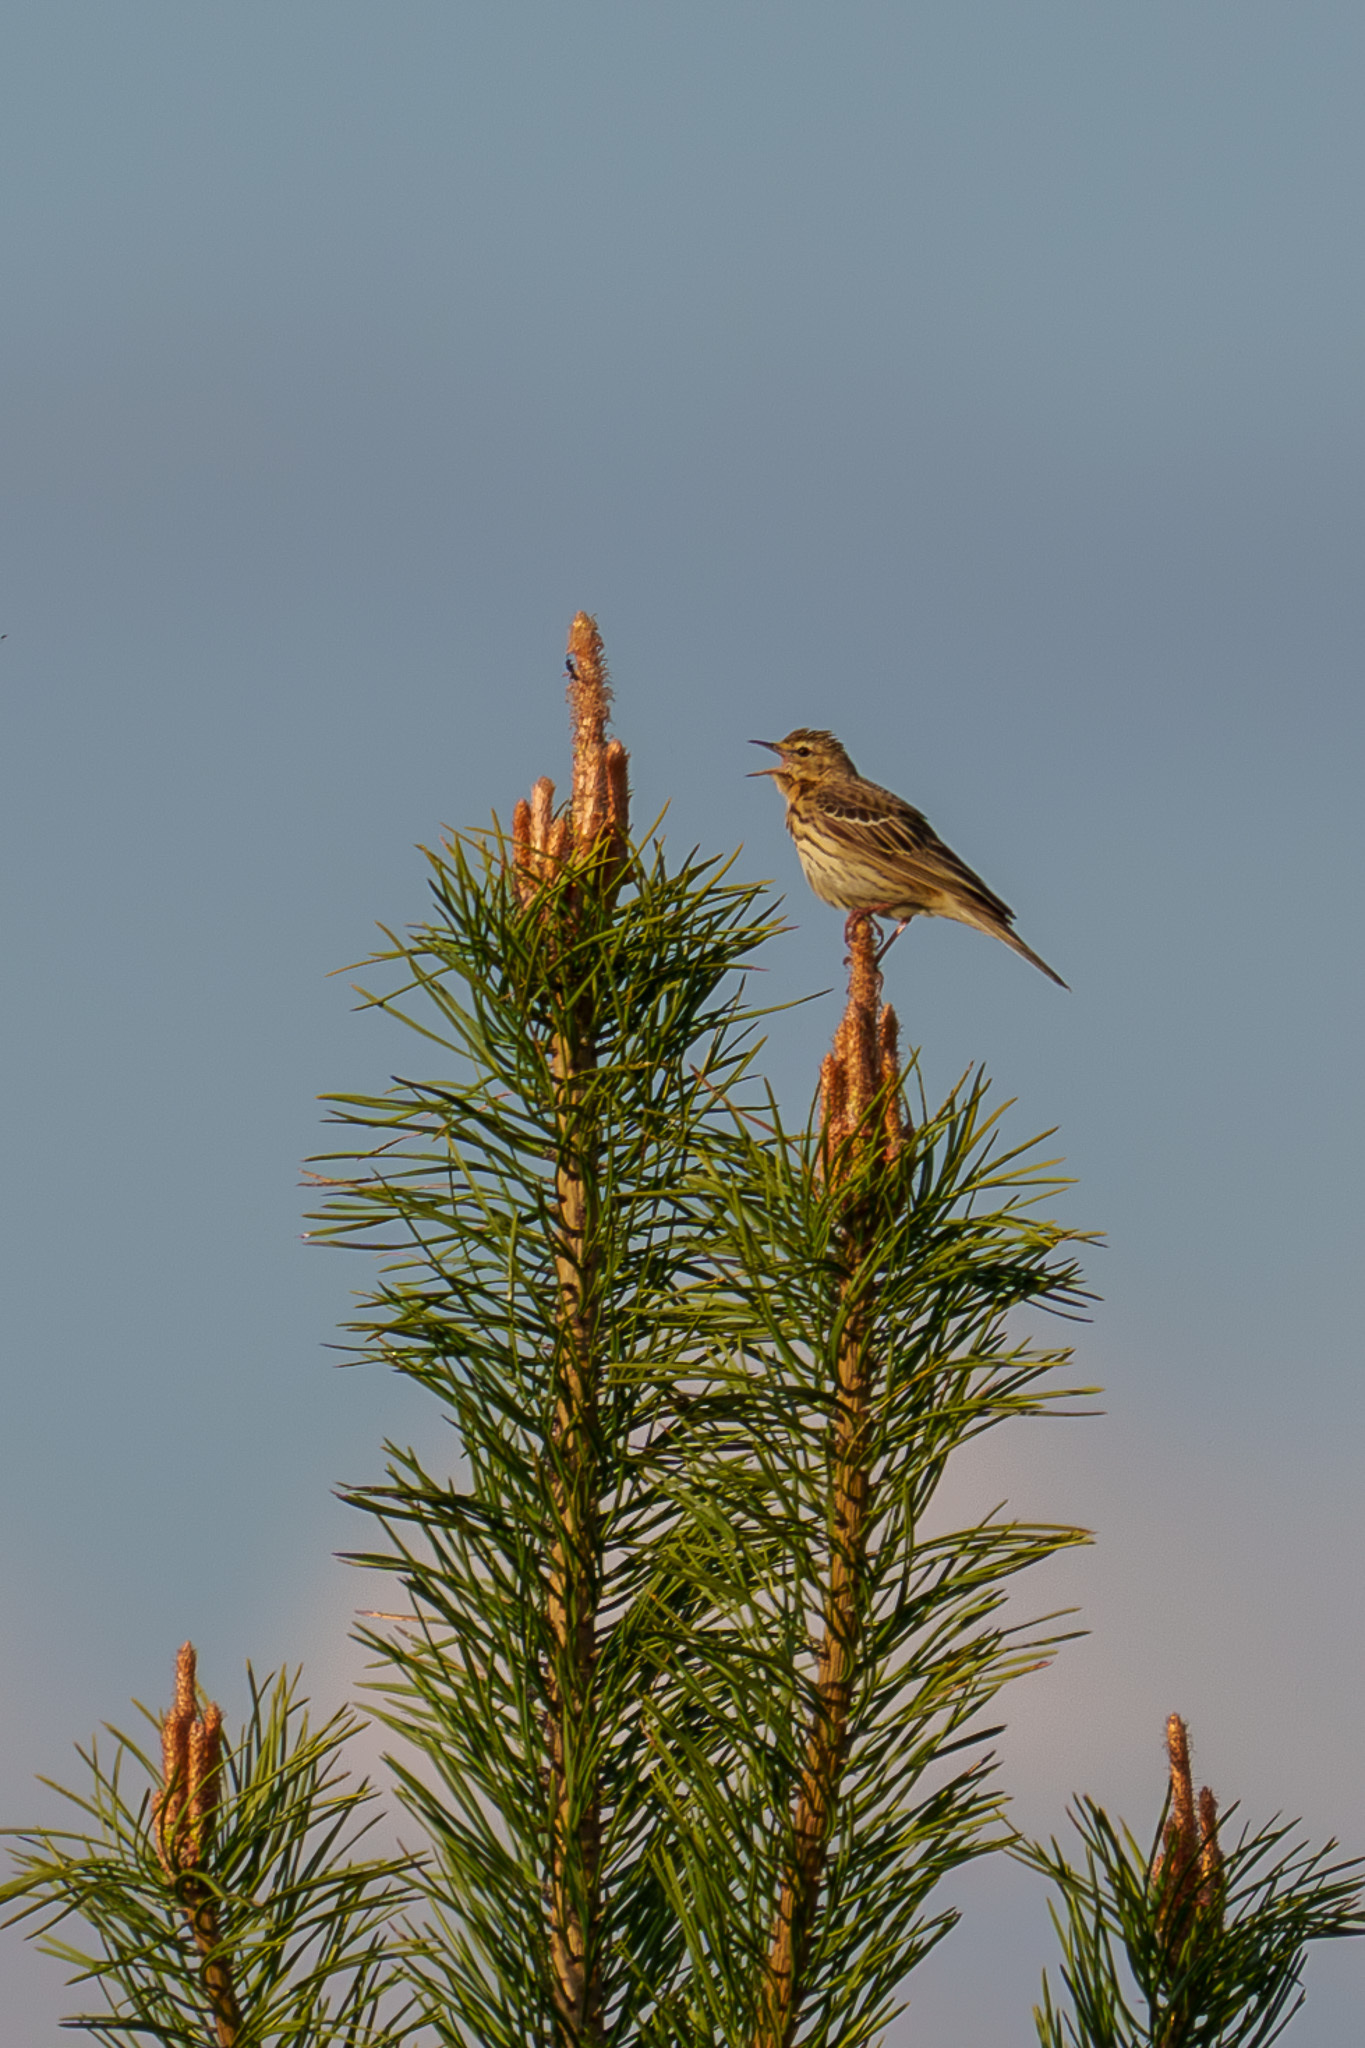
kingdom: Animalia
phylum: Chordata
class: Aves
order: Passeriformes
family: Motacillidae
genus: Anthus
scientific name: Anthus trivialis
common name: Tree pipit
